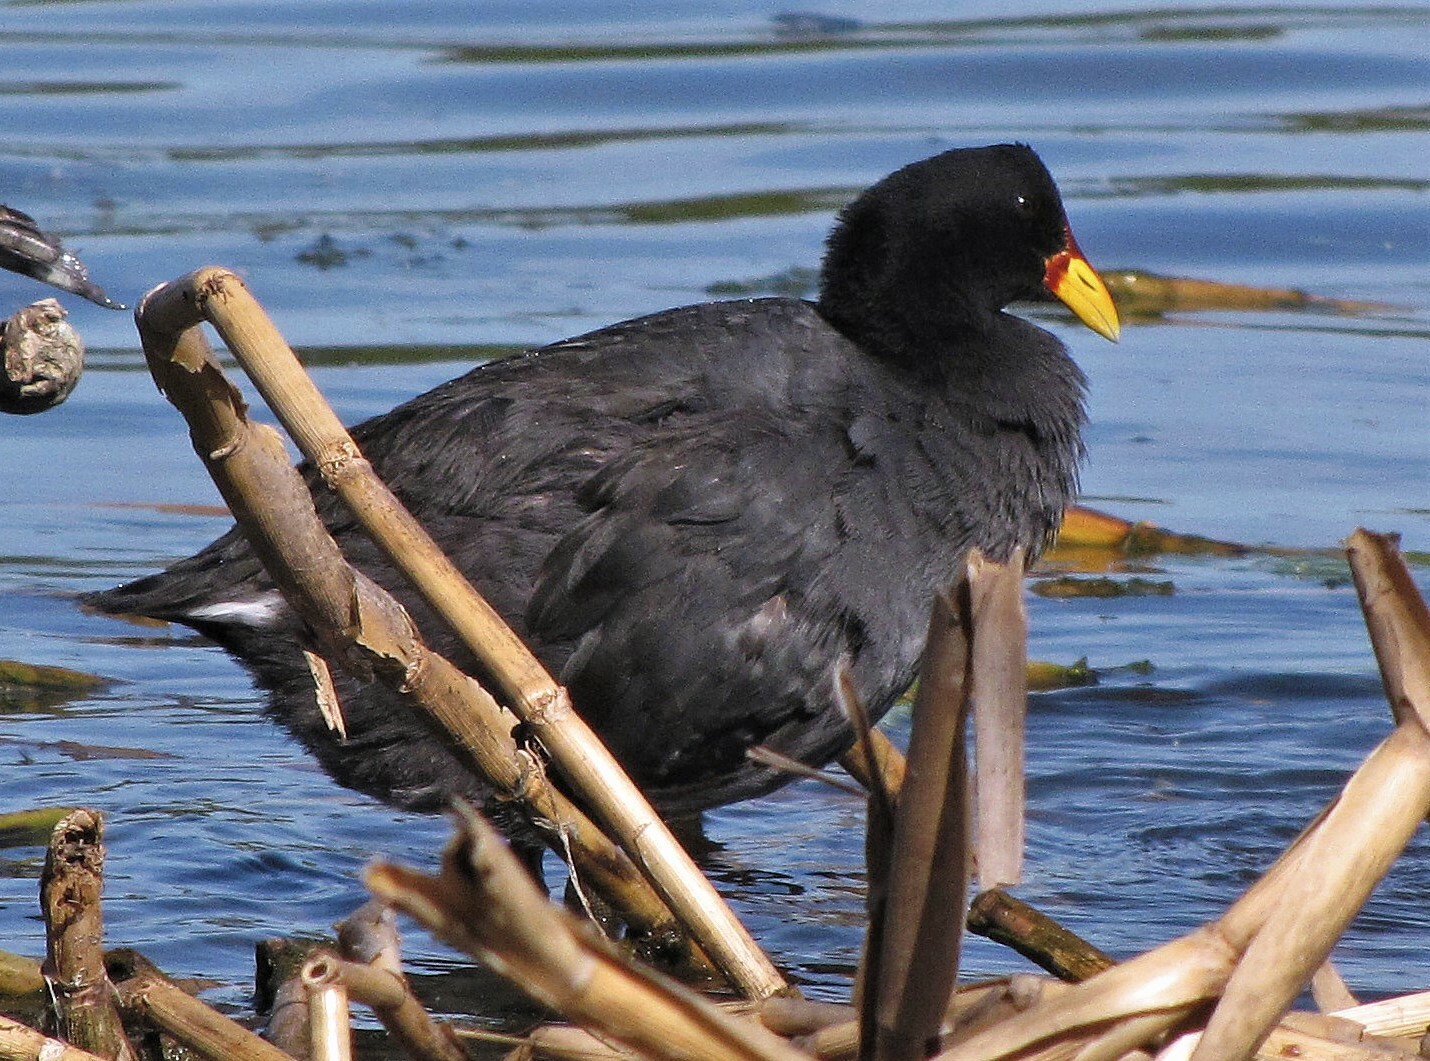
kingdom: Animalia
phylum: Chordata
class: Aves
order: Gruiformes
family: Rallidae
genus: Fulica
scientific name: Fulica rufifrons
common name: Red-fronted coot
